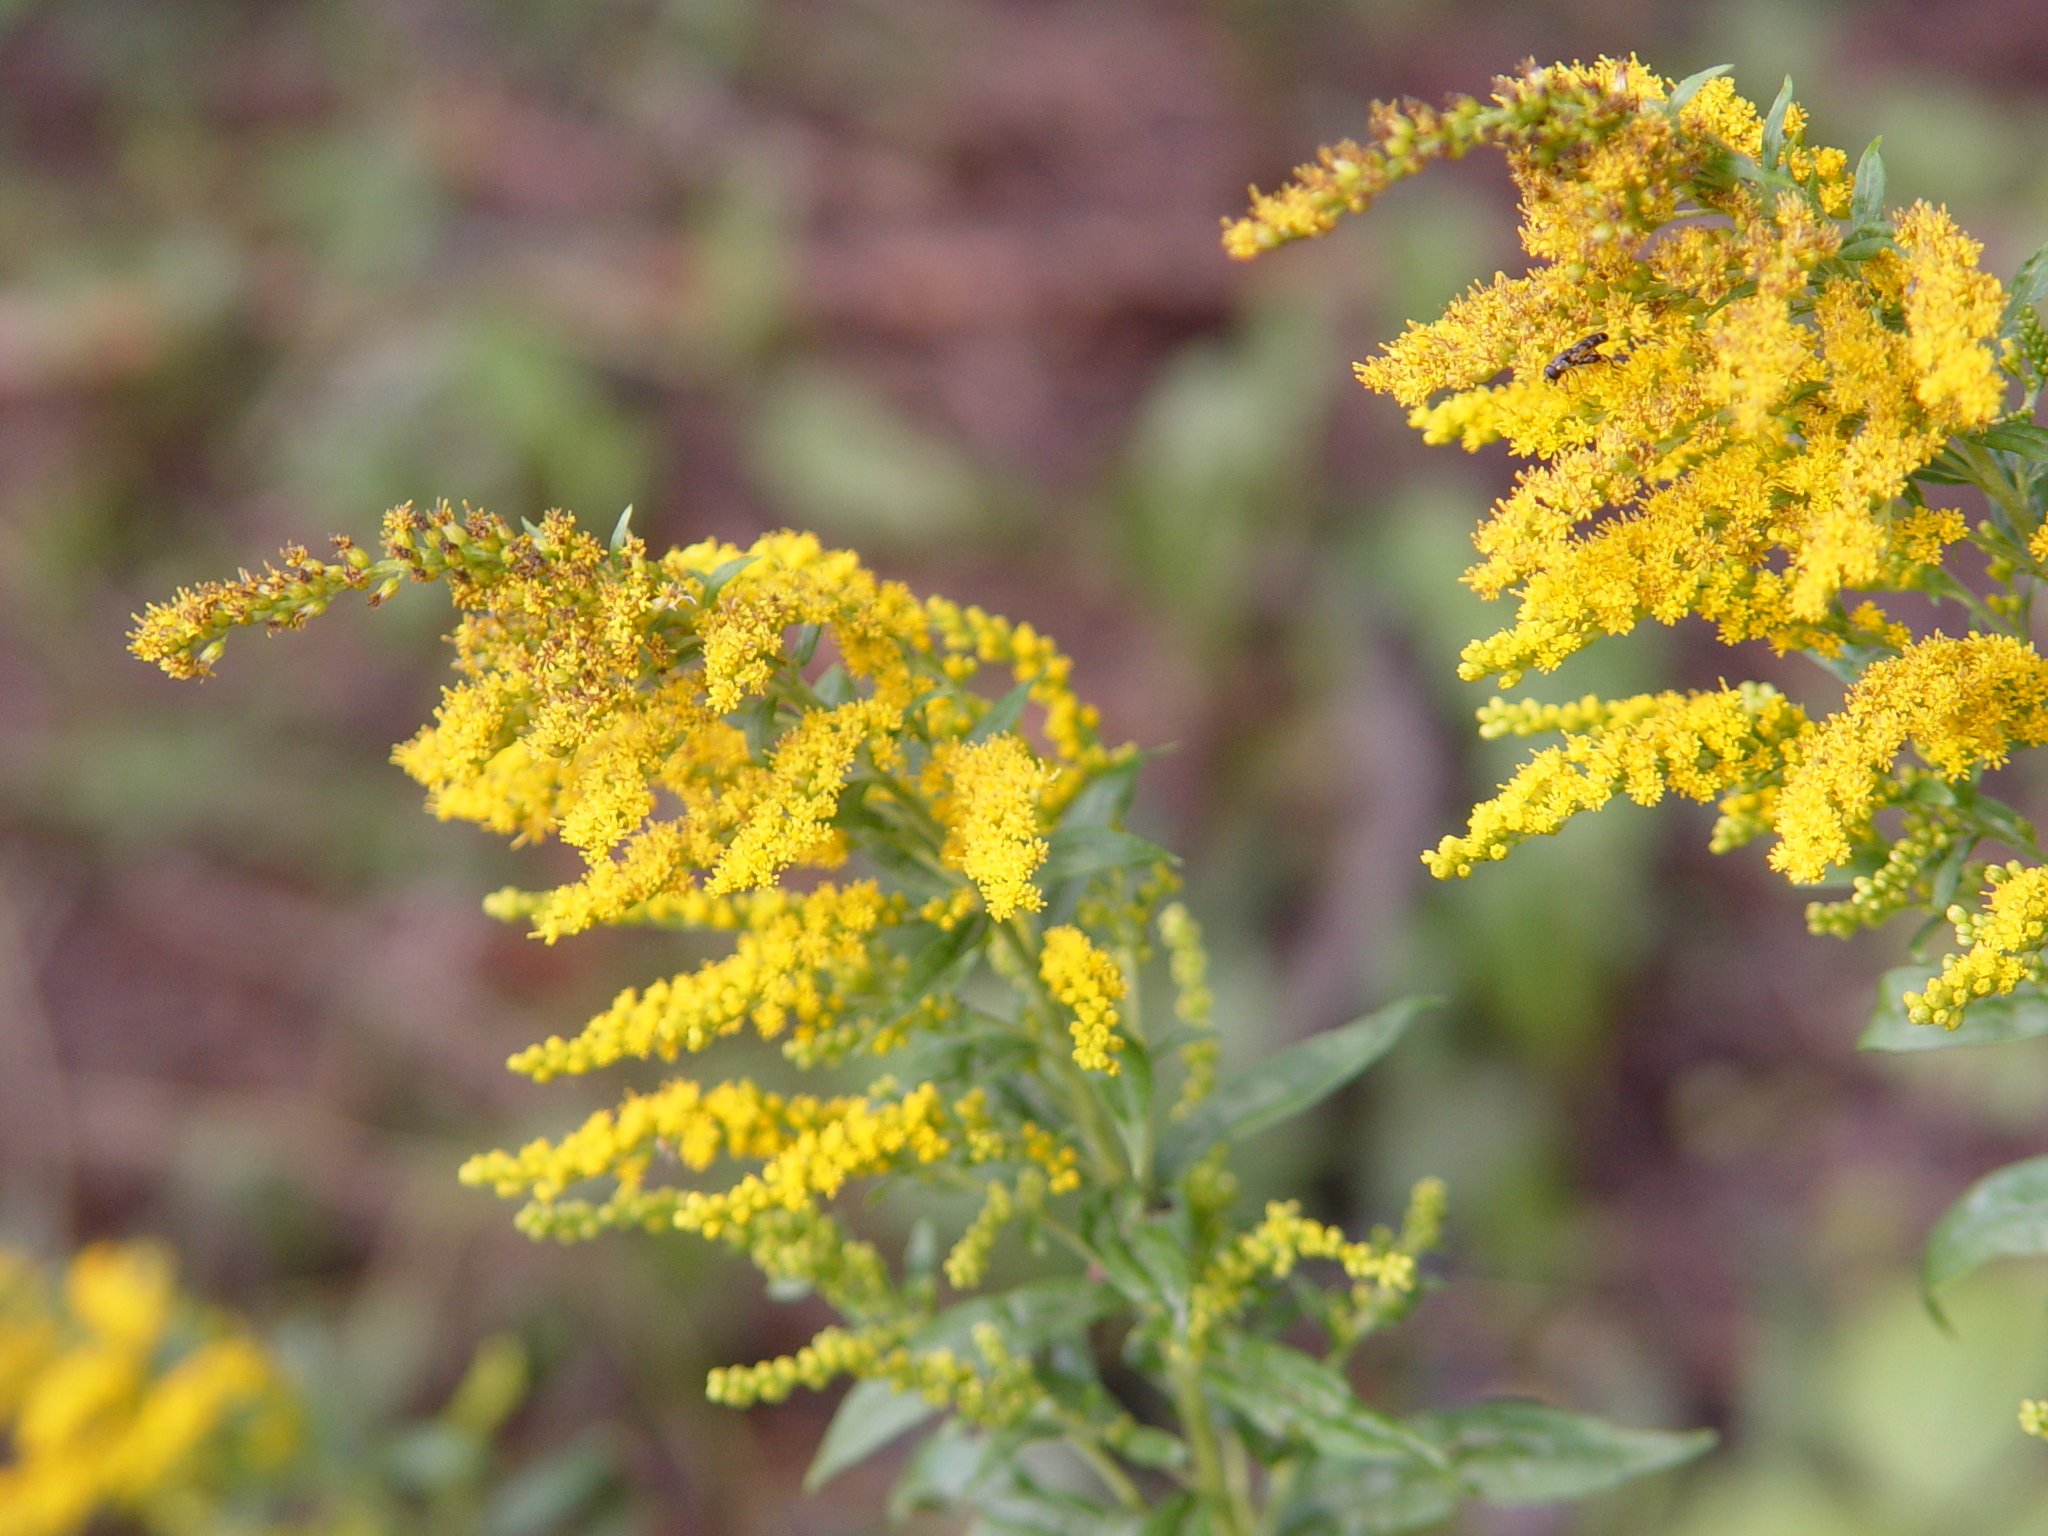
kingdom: Plantae
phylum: Tracheophyta
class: Magnoliopsida
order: Asterales
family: Asteraceae
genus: Solidago
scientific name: Solidago gigantea
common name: Giant goldenrod
